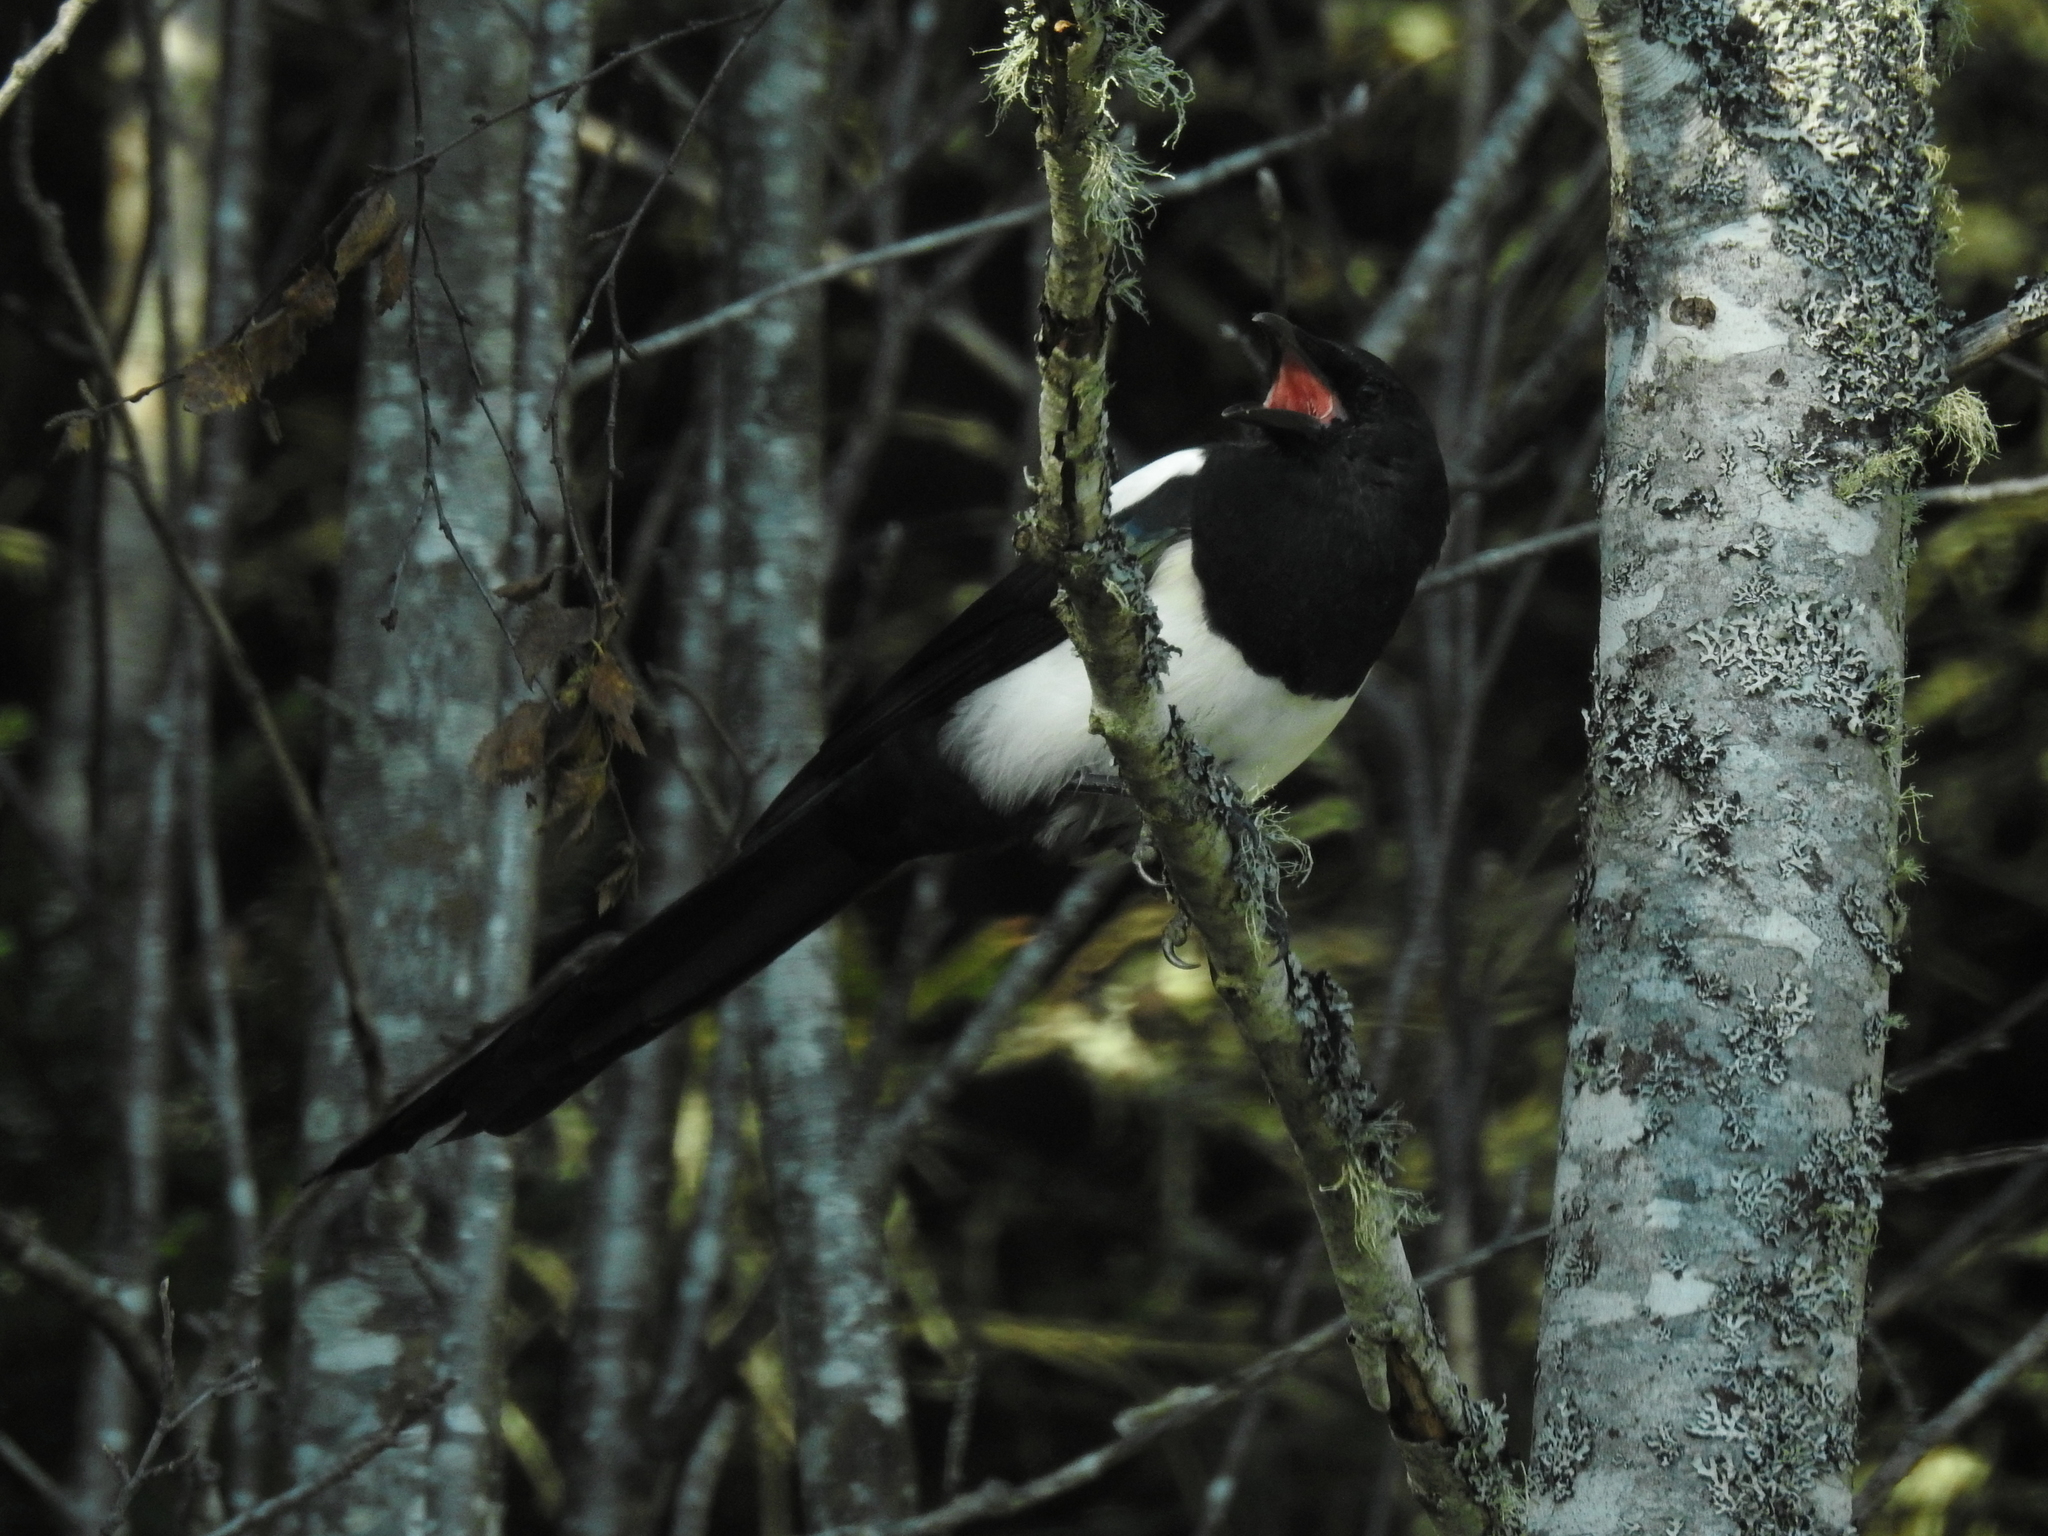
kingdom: Animalia
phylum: Chordata
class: Aves
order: Passeriformes
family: Corvidae
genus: Pica
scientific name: Pica pica
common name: Eurasian magpie
